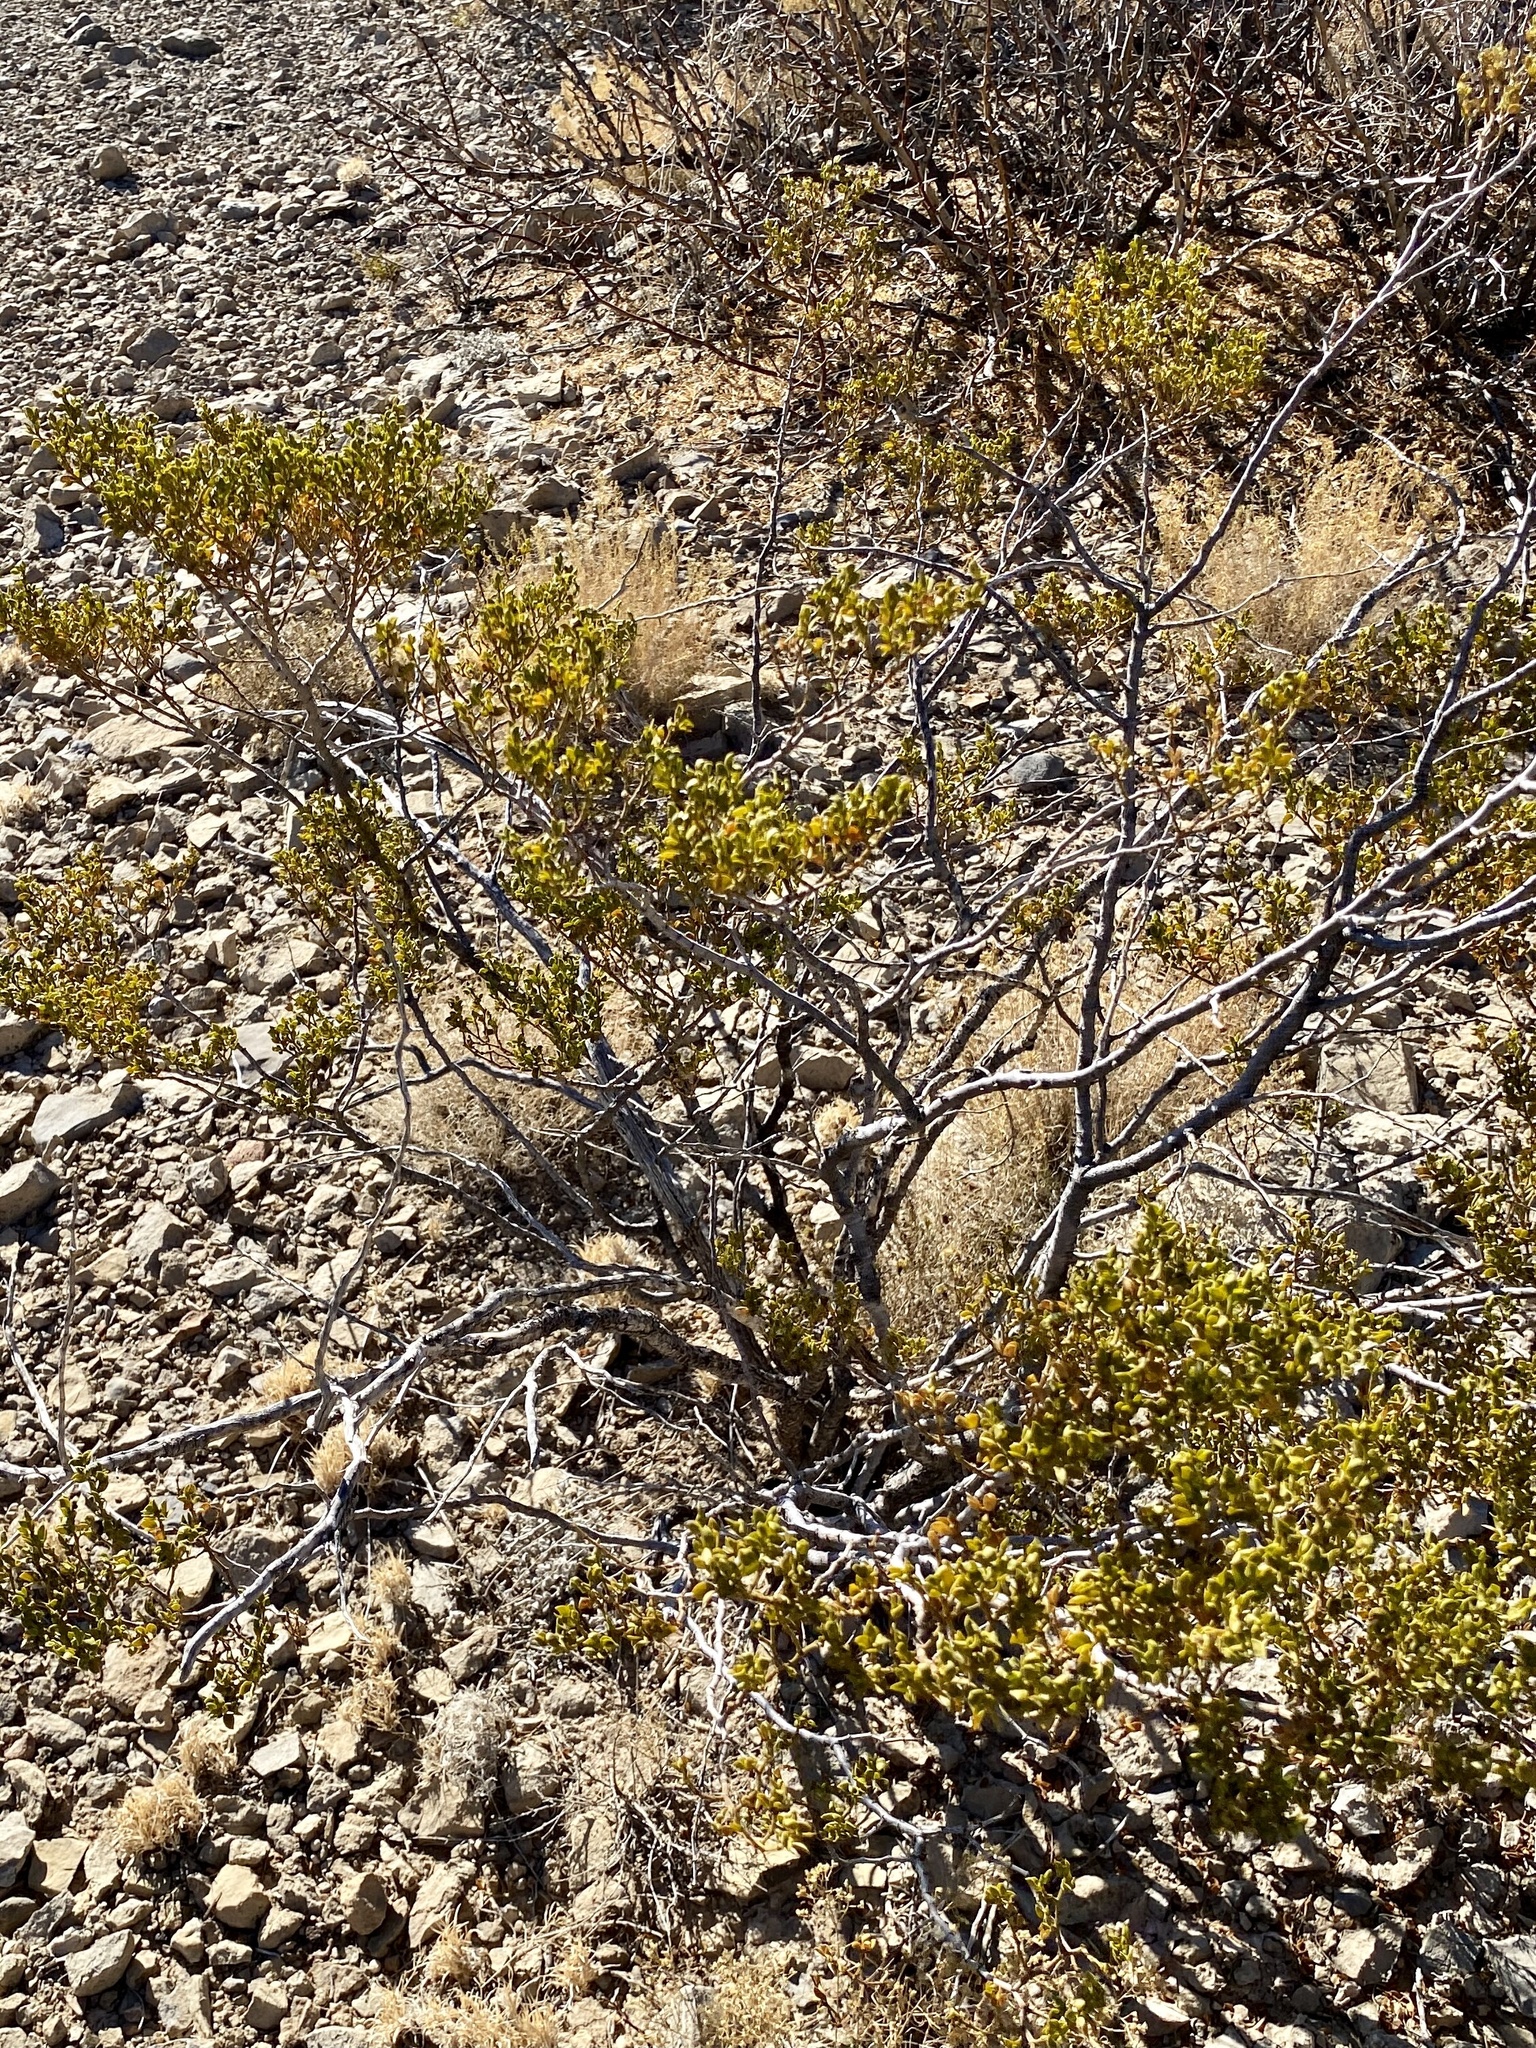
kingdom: Plantae
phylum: Tracheophyta
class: Magnoliopsida
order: Zygophyllales
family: Zygophyllaceae
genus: Larrea
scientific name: Larrea tridentata
